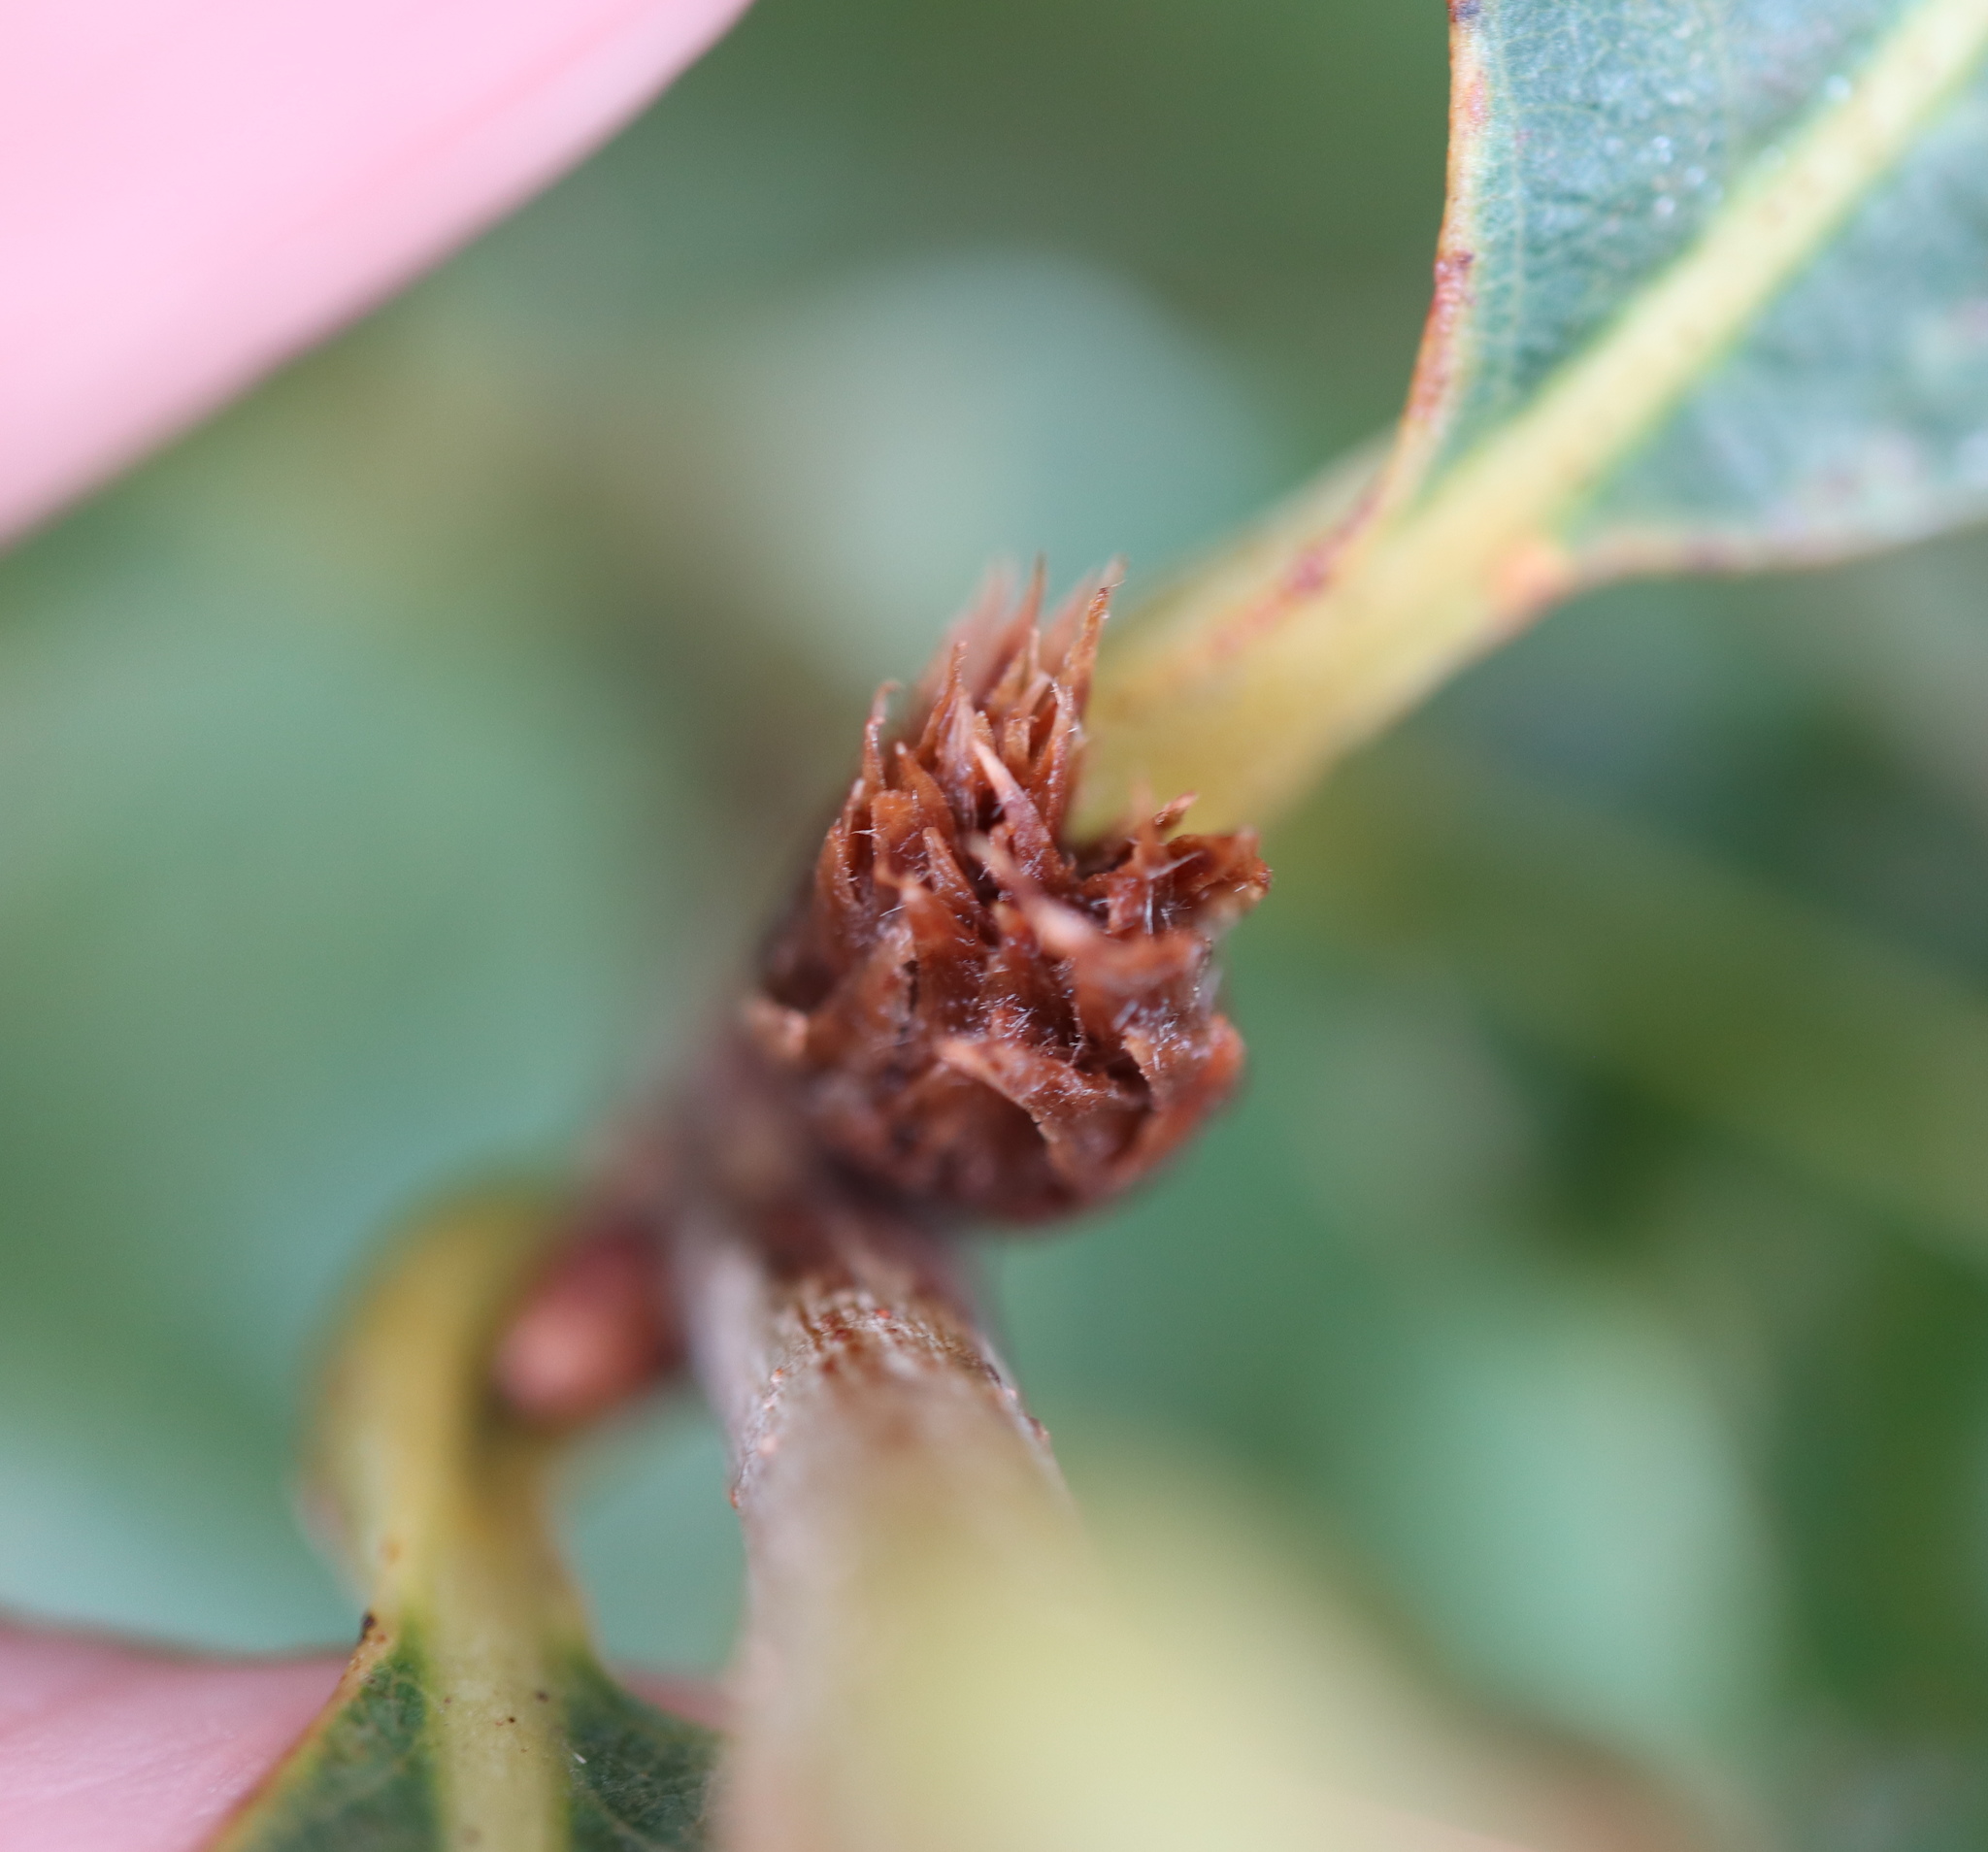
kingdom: Animalia
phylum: Arthropoda
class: Insecta
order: Hymenoptera
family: Cynipidae
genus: Andricus
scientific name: Andricus
